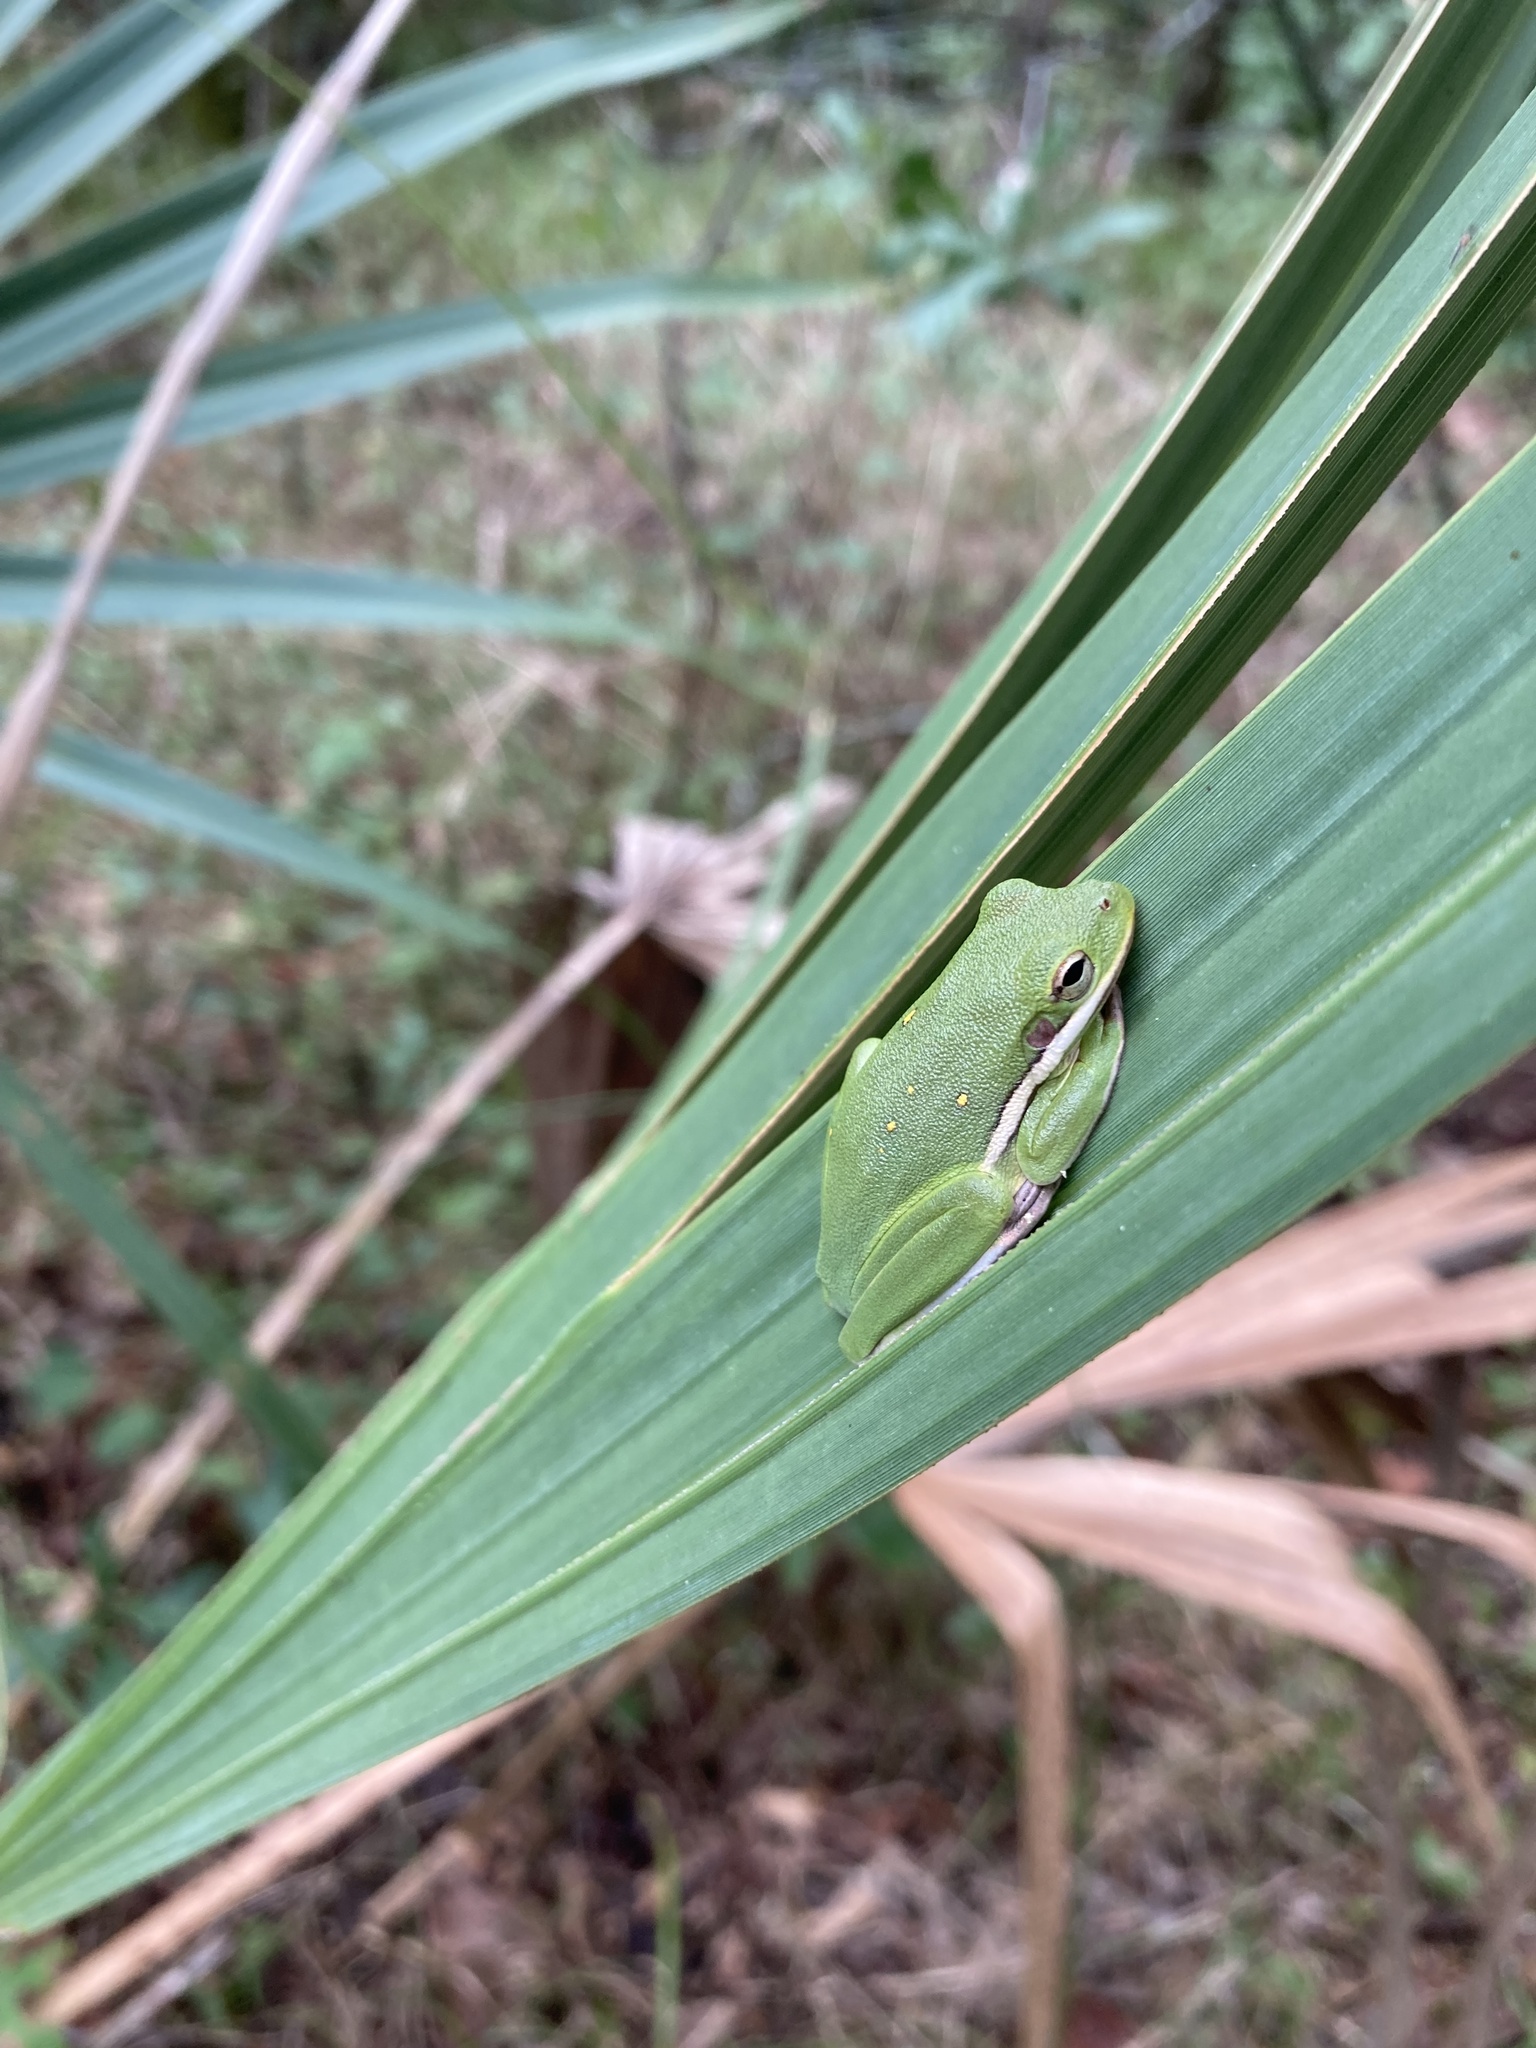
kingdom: Animalia
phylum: Chordata
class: Amphibia
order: Anura
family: Hylidae
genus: Dryophytes
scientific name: Dryophytes cinereus
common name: Green treefrog
